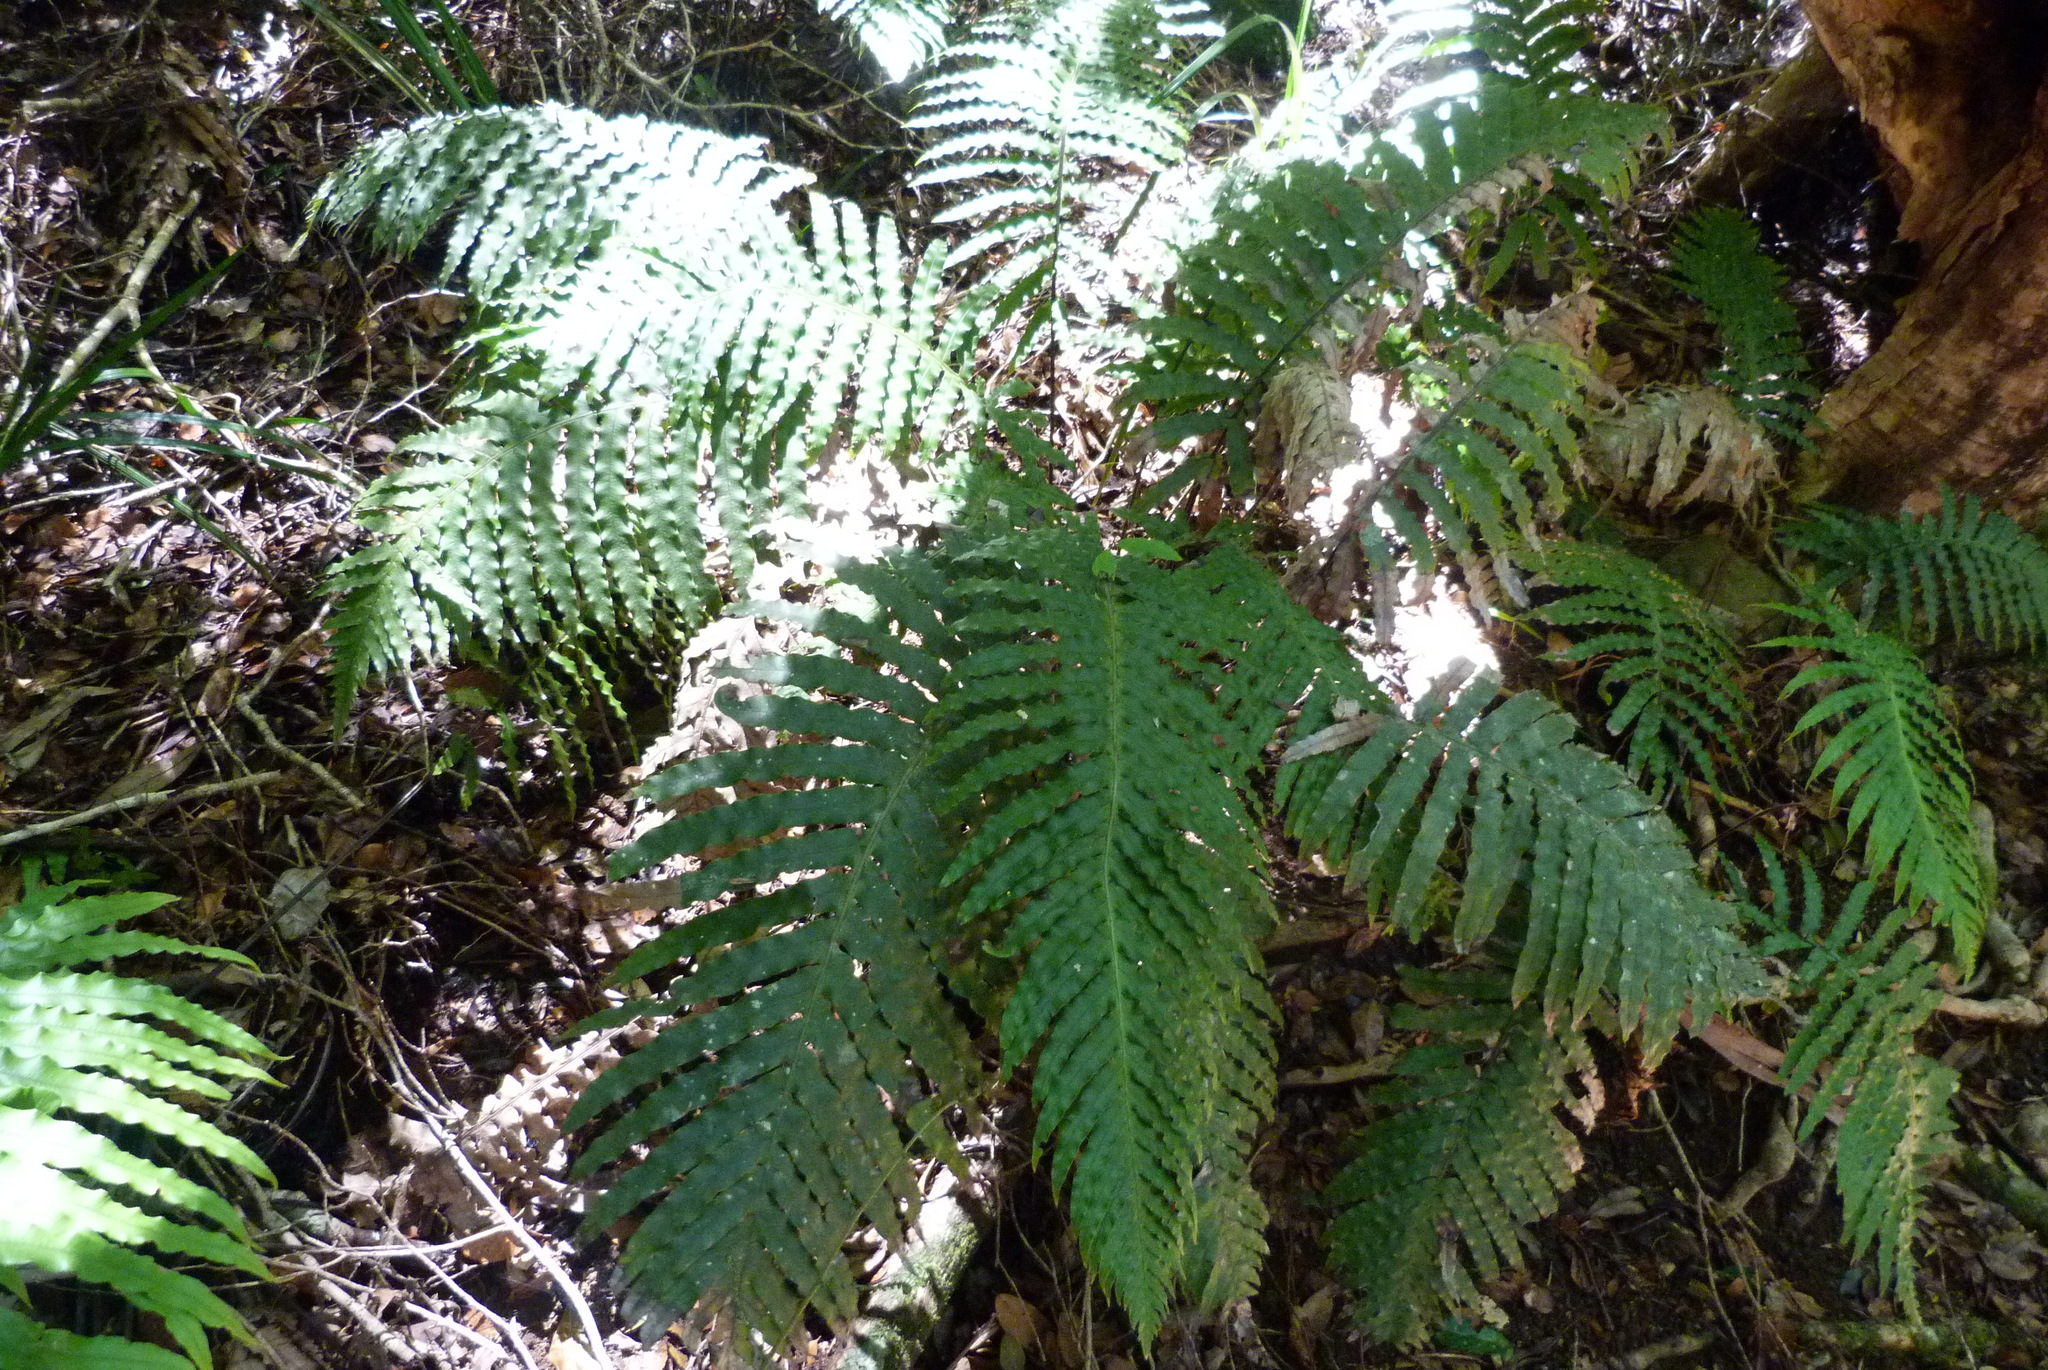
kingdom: Plantae
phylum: Tracheophyta
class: Polypodiopsida
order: Polypodiales
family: Blechnaceae
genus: Oceaniopteris
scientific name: Oceaniopteris cartilaginea
